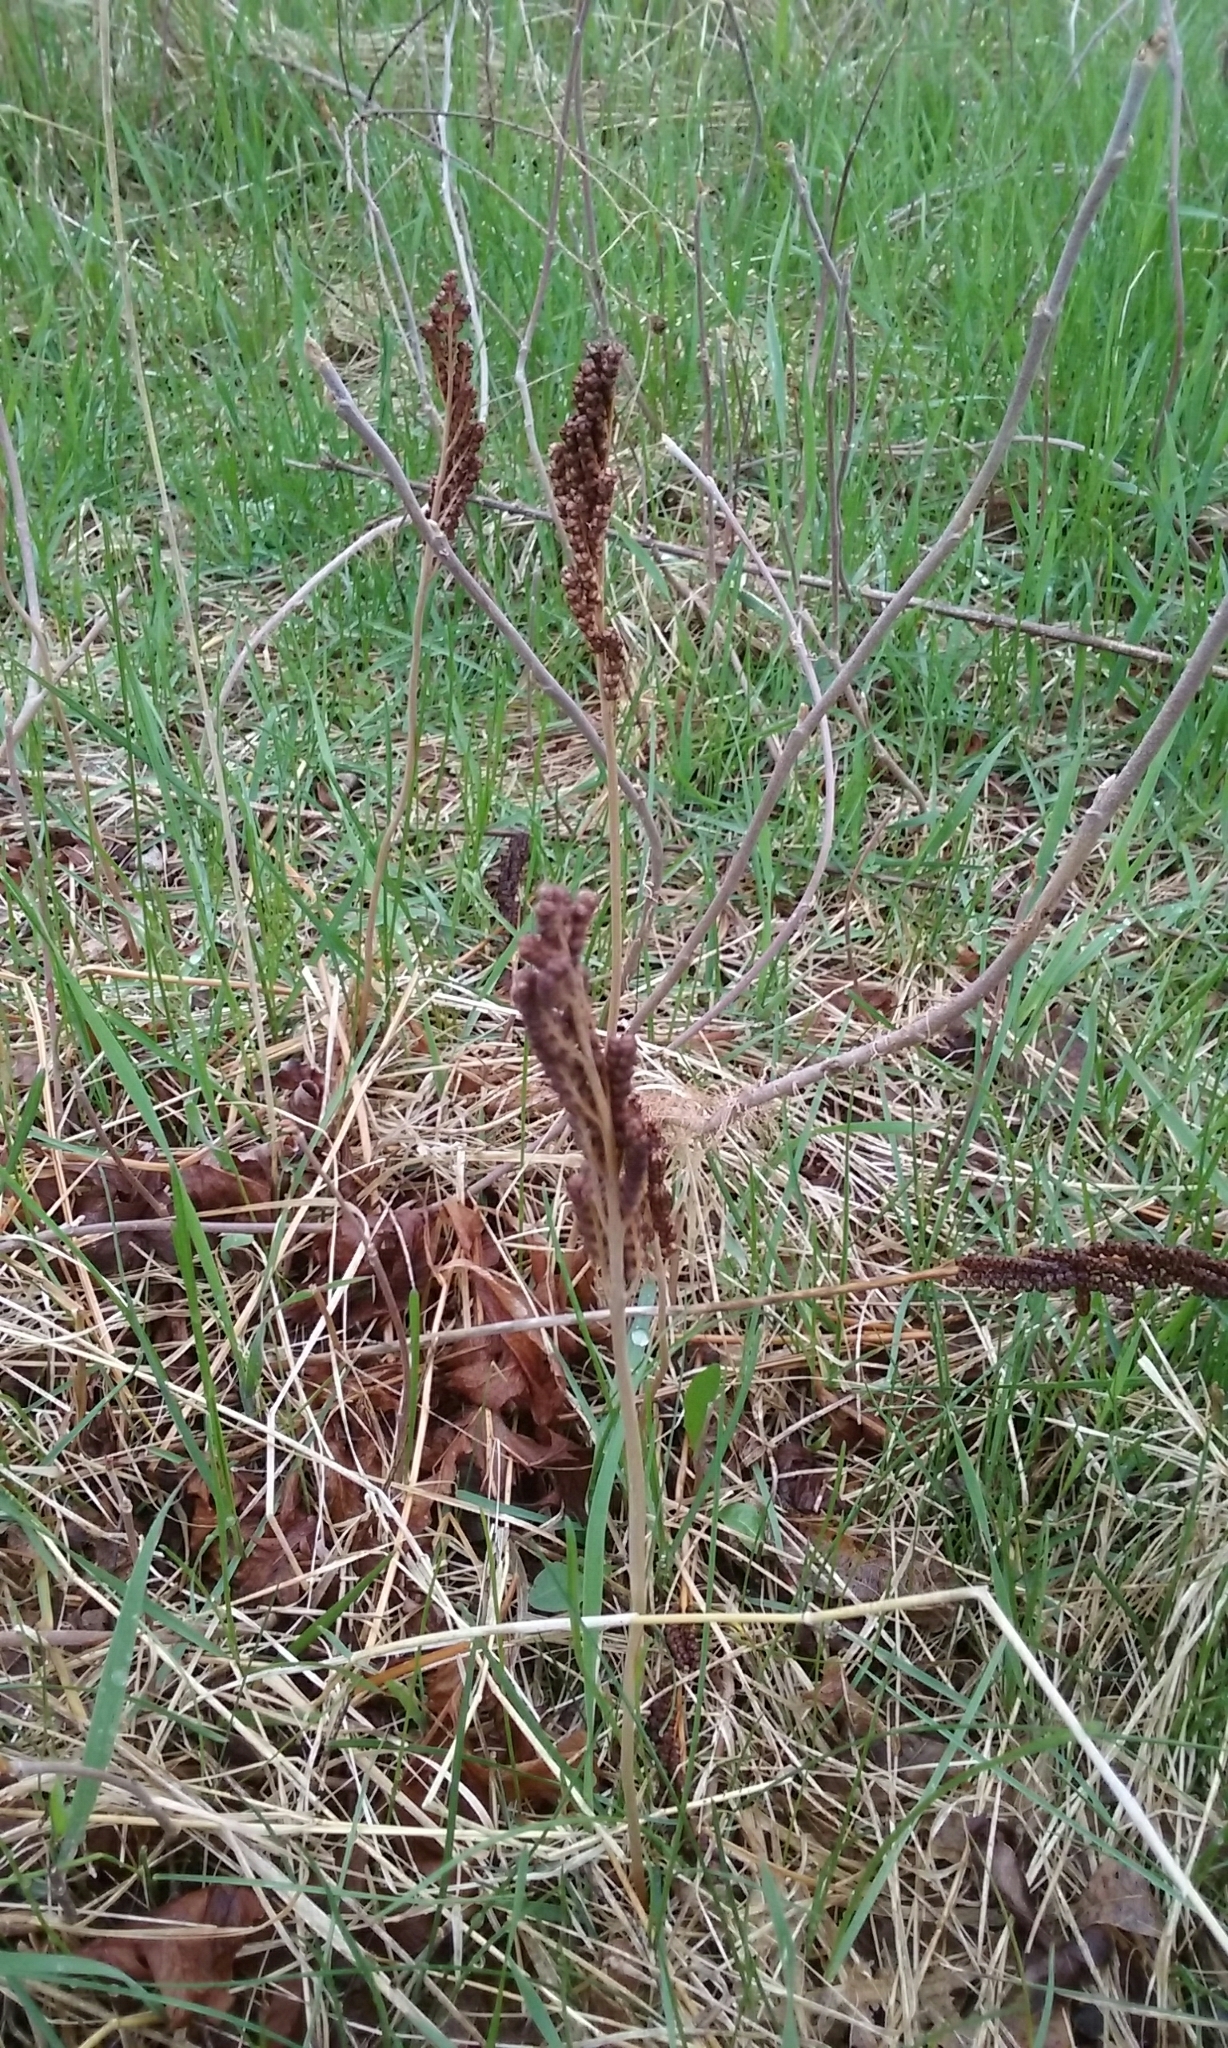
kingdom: Plantae
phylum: Tracheophyta
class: Polypodiopsida
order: Polypodiales
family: Onocleaceae
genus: Onoclea
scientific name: Onoclea sensibilis
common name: Sensitive fern
